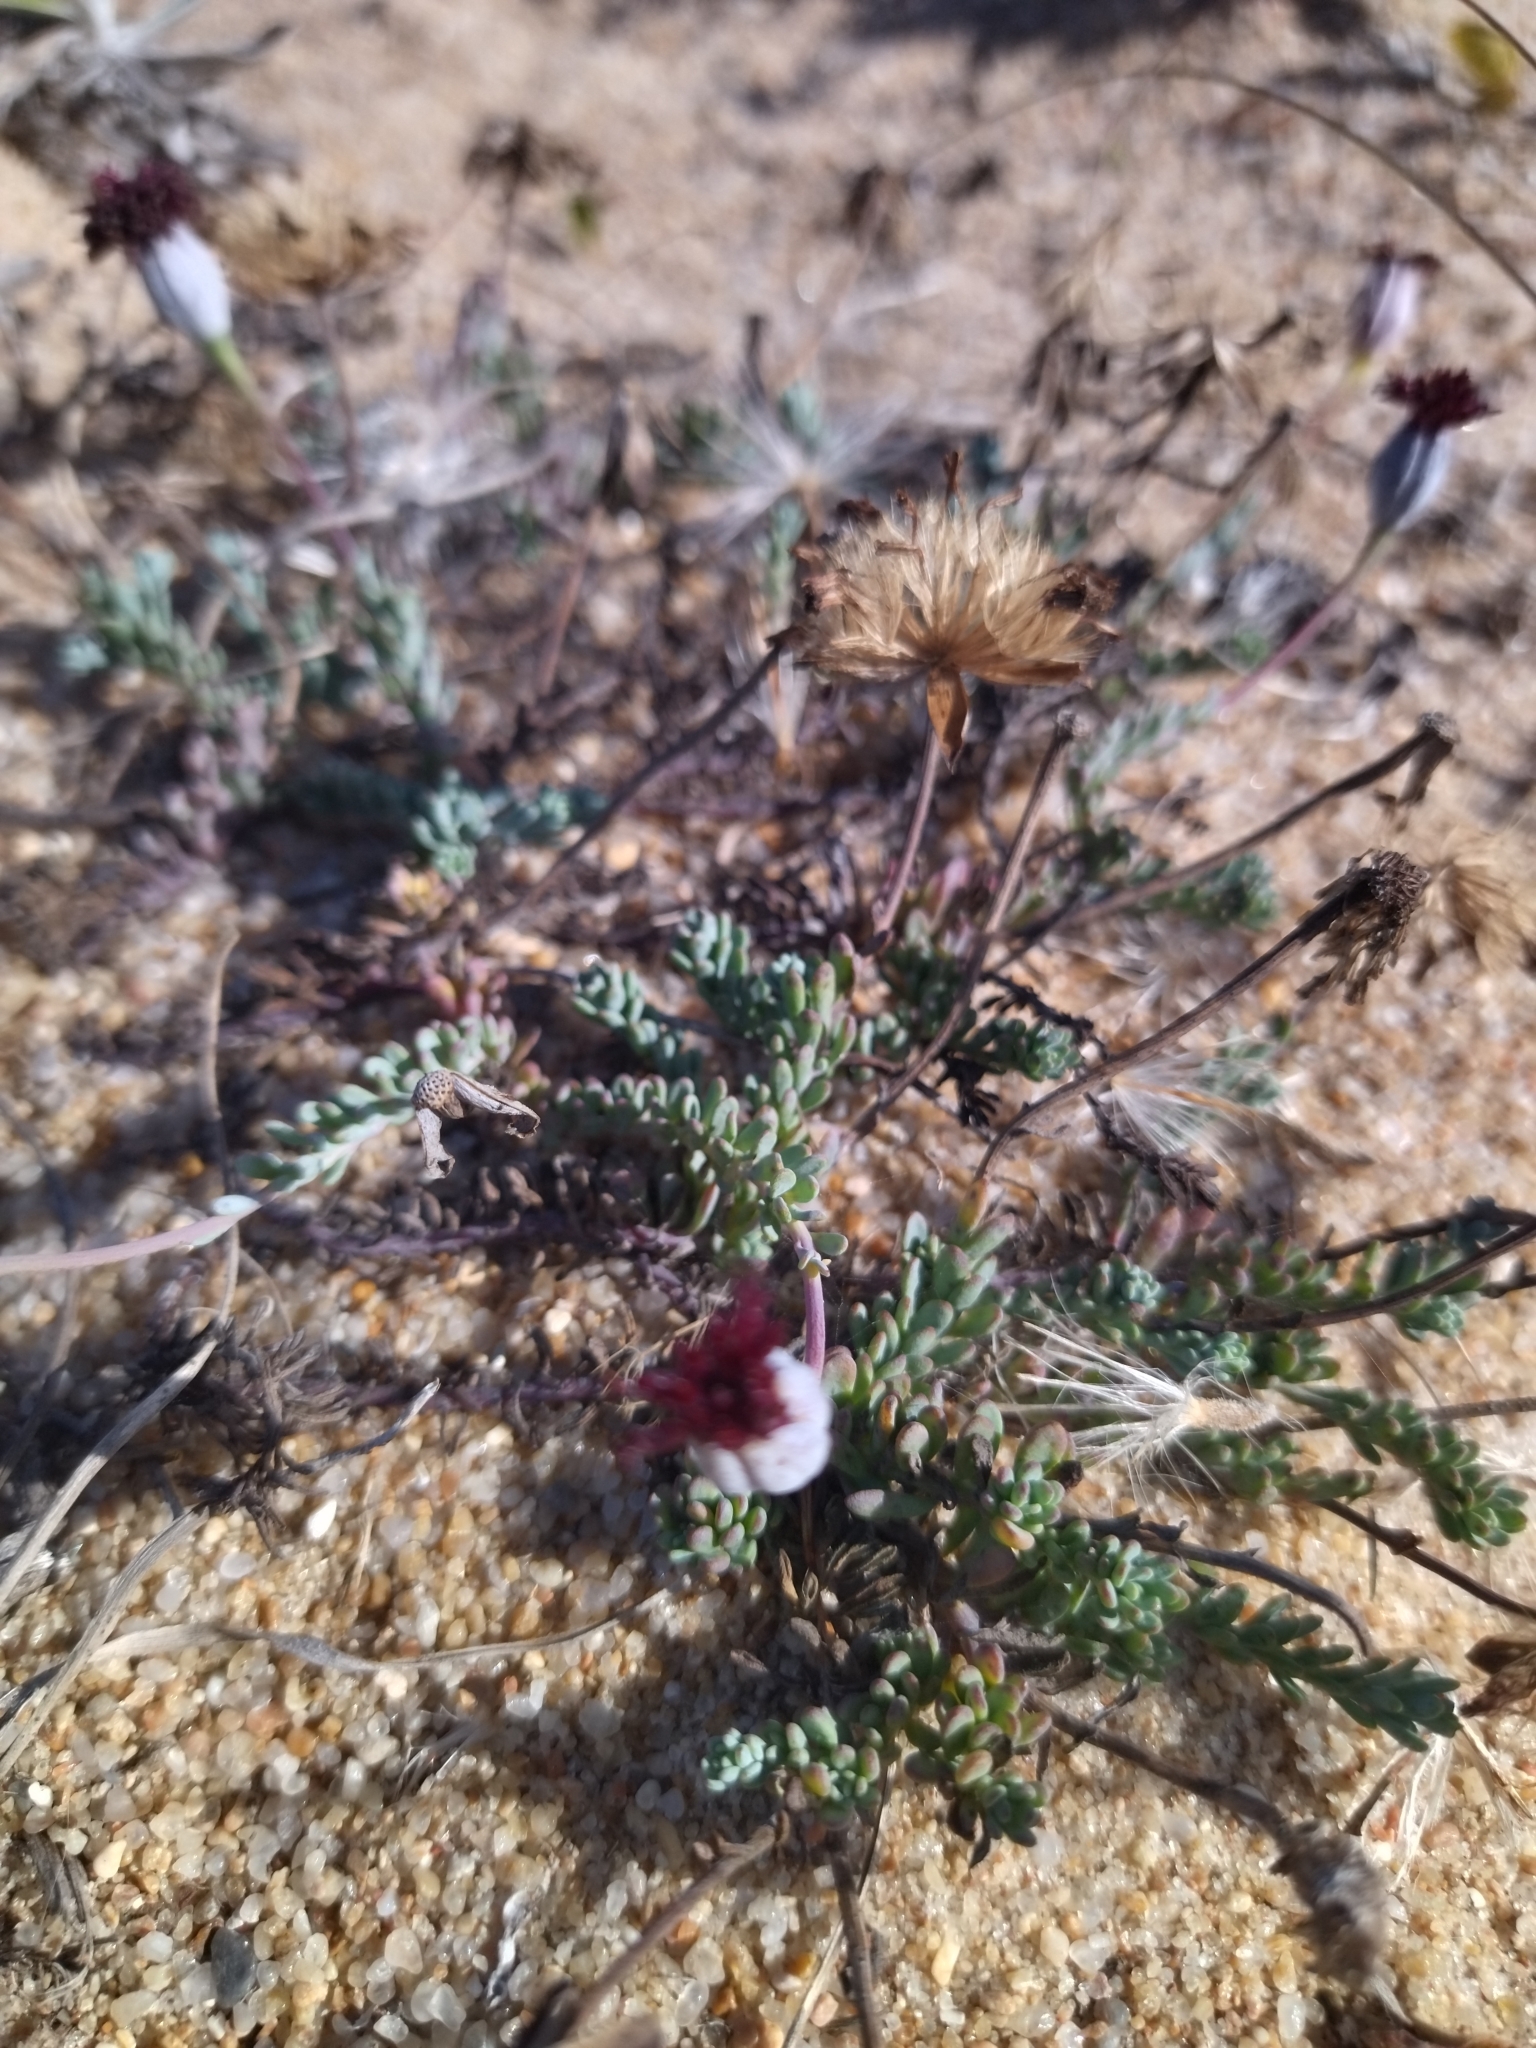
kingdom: Plantae
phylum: Tracheophyta
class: Magnoliopsida
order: Asterales
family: Asteraceae
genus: Porophyllum
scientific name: Porophyllum linifolium
